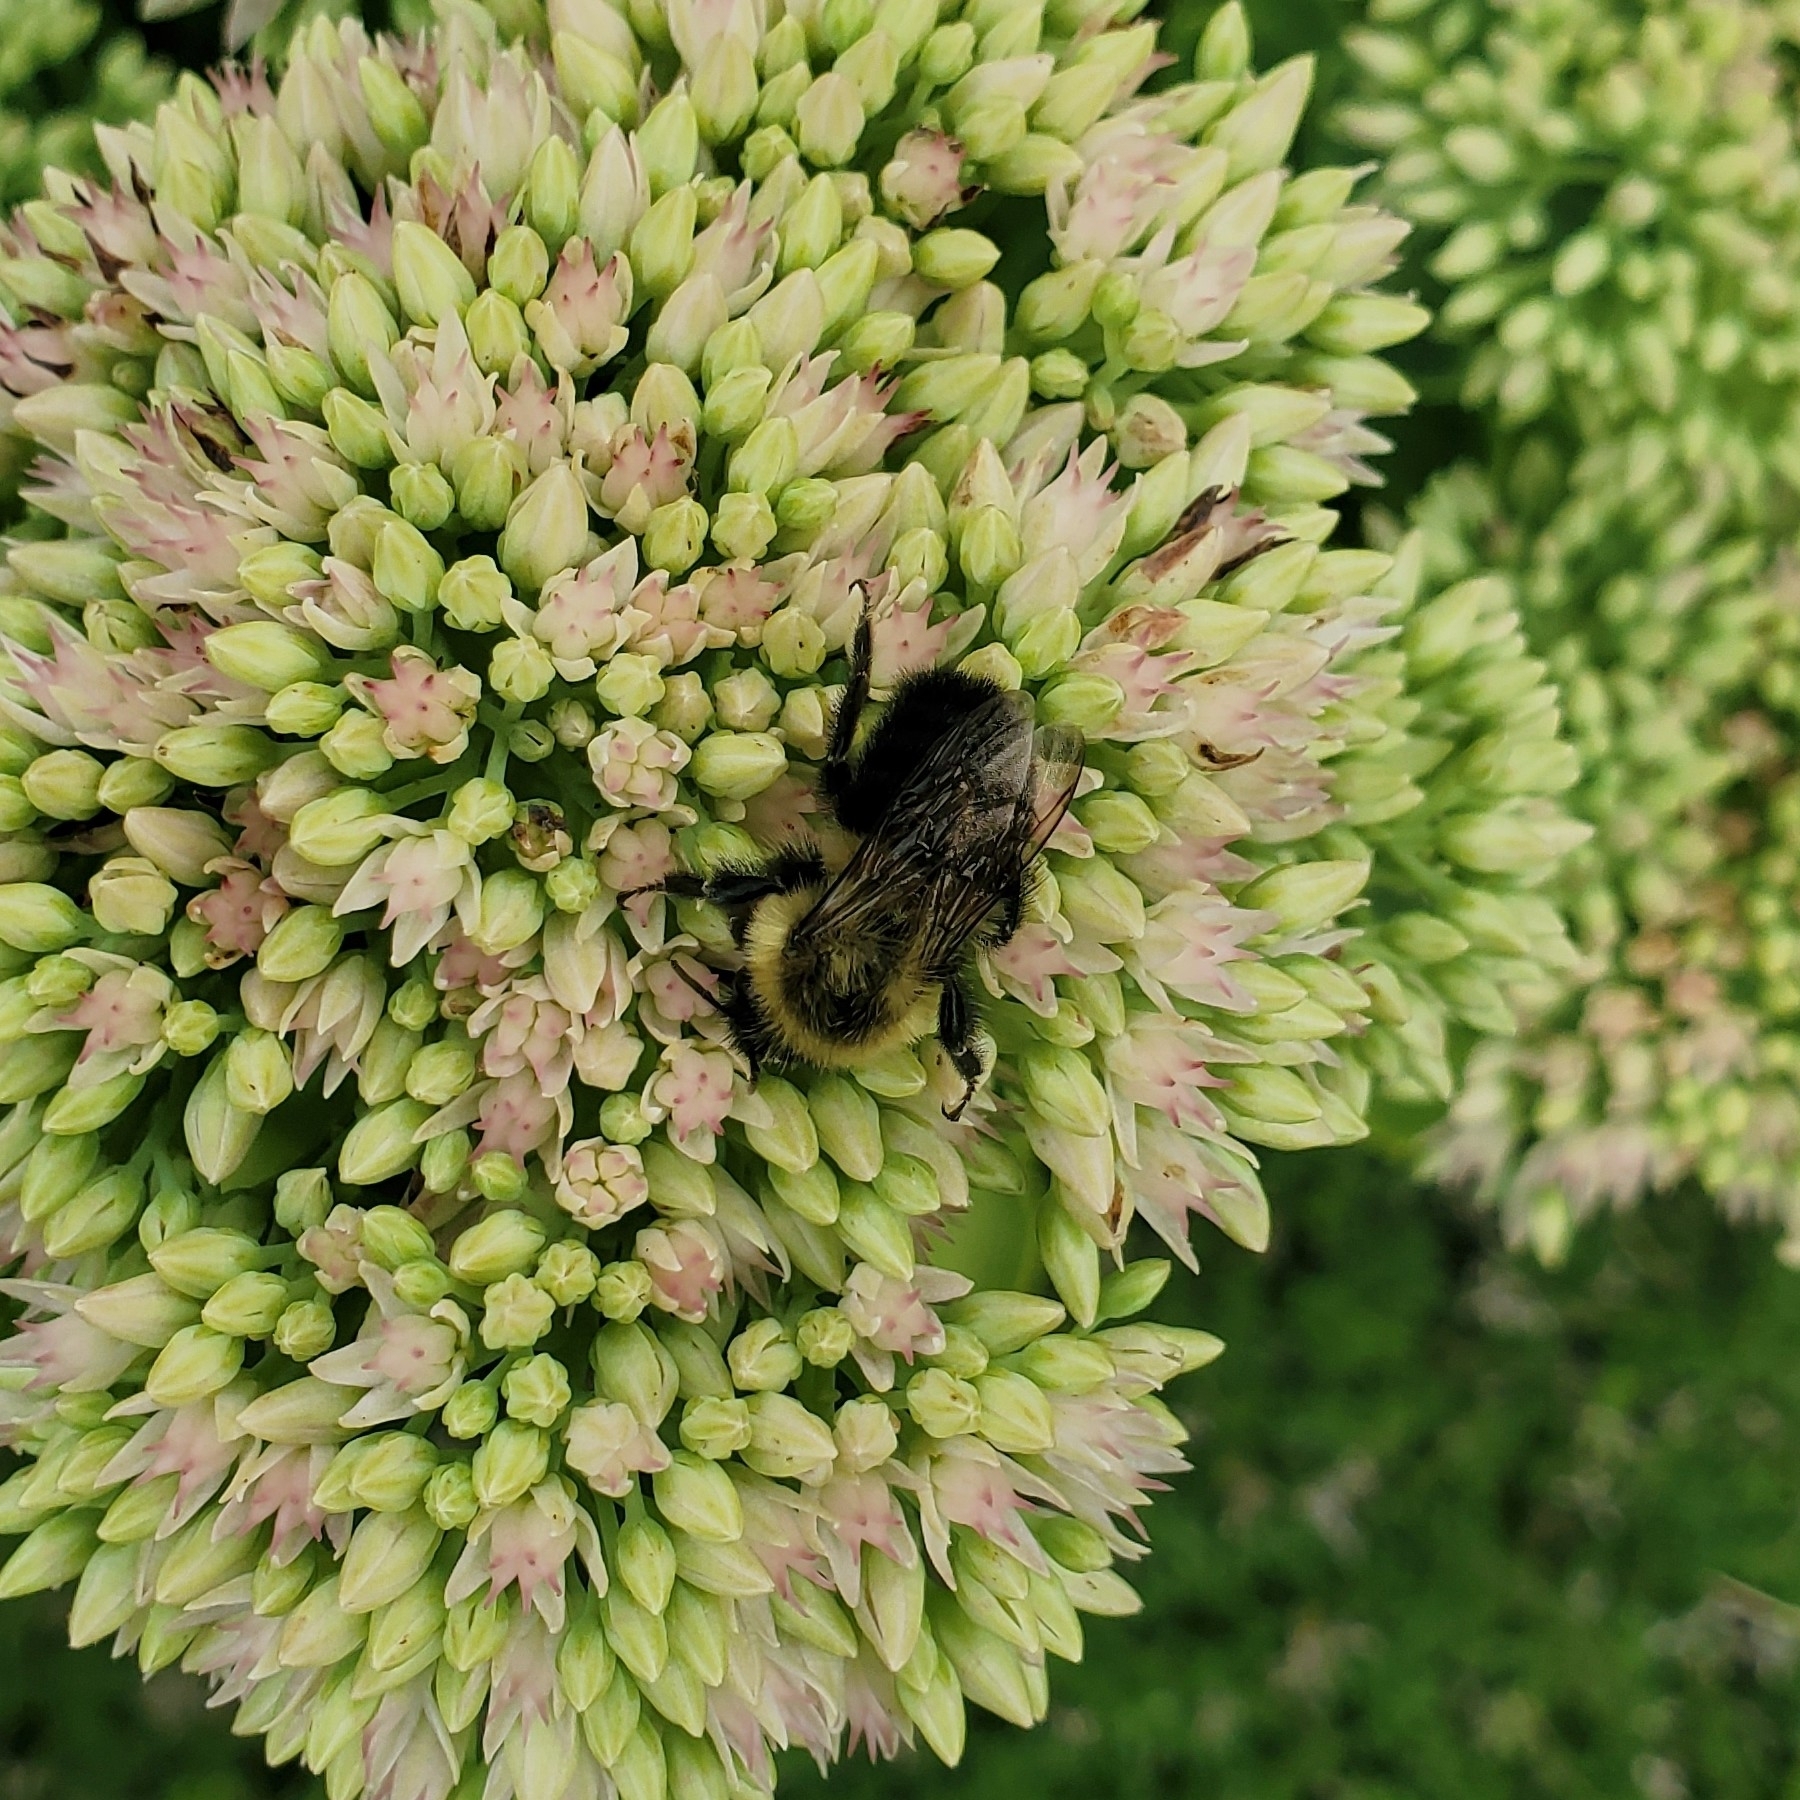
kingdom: Animalia
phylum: Arthropoda
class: Insecta
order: Hymenoptera
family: Apidae
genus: Bombus
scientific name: Bombus impatiens
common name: Common eastern bumble bee
